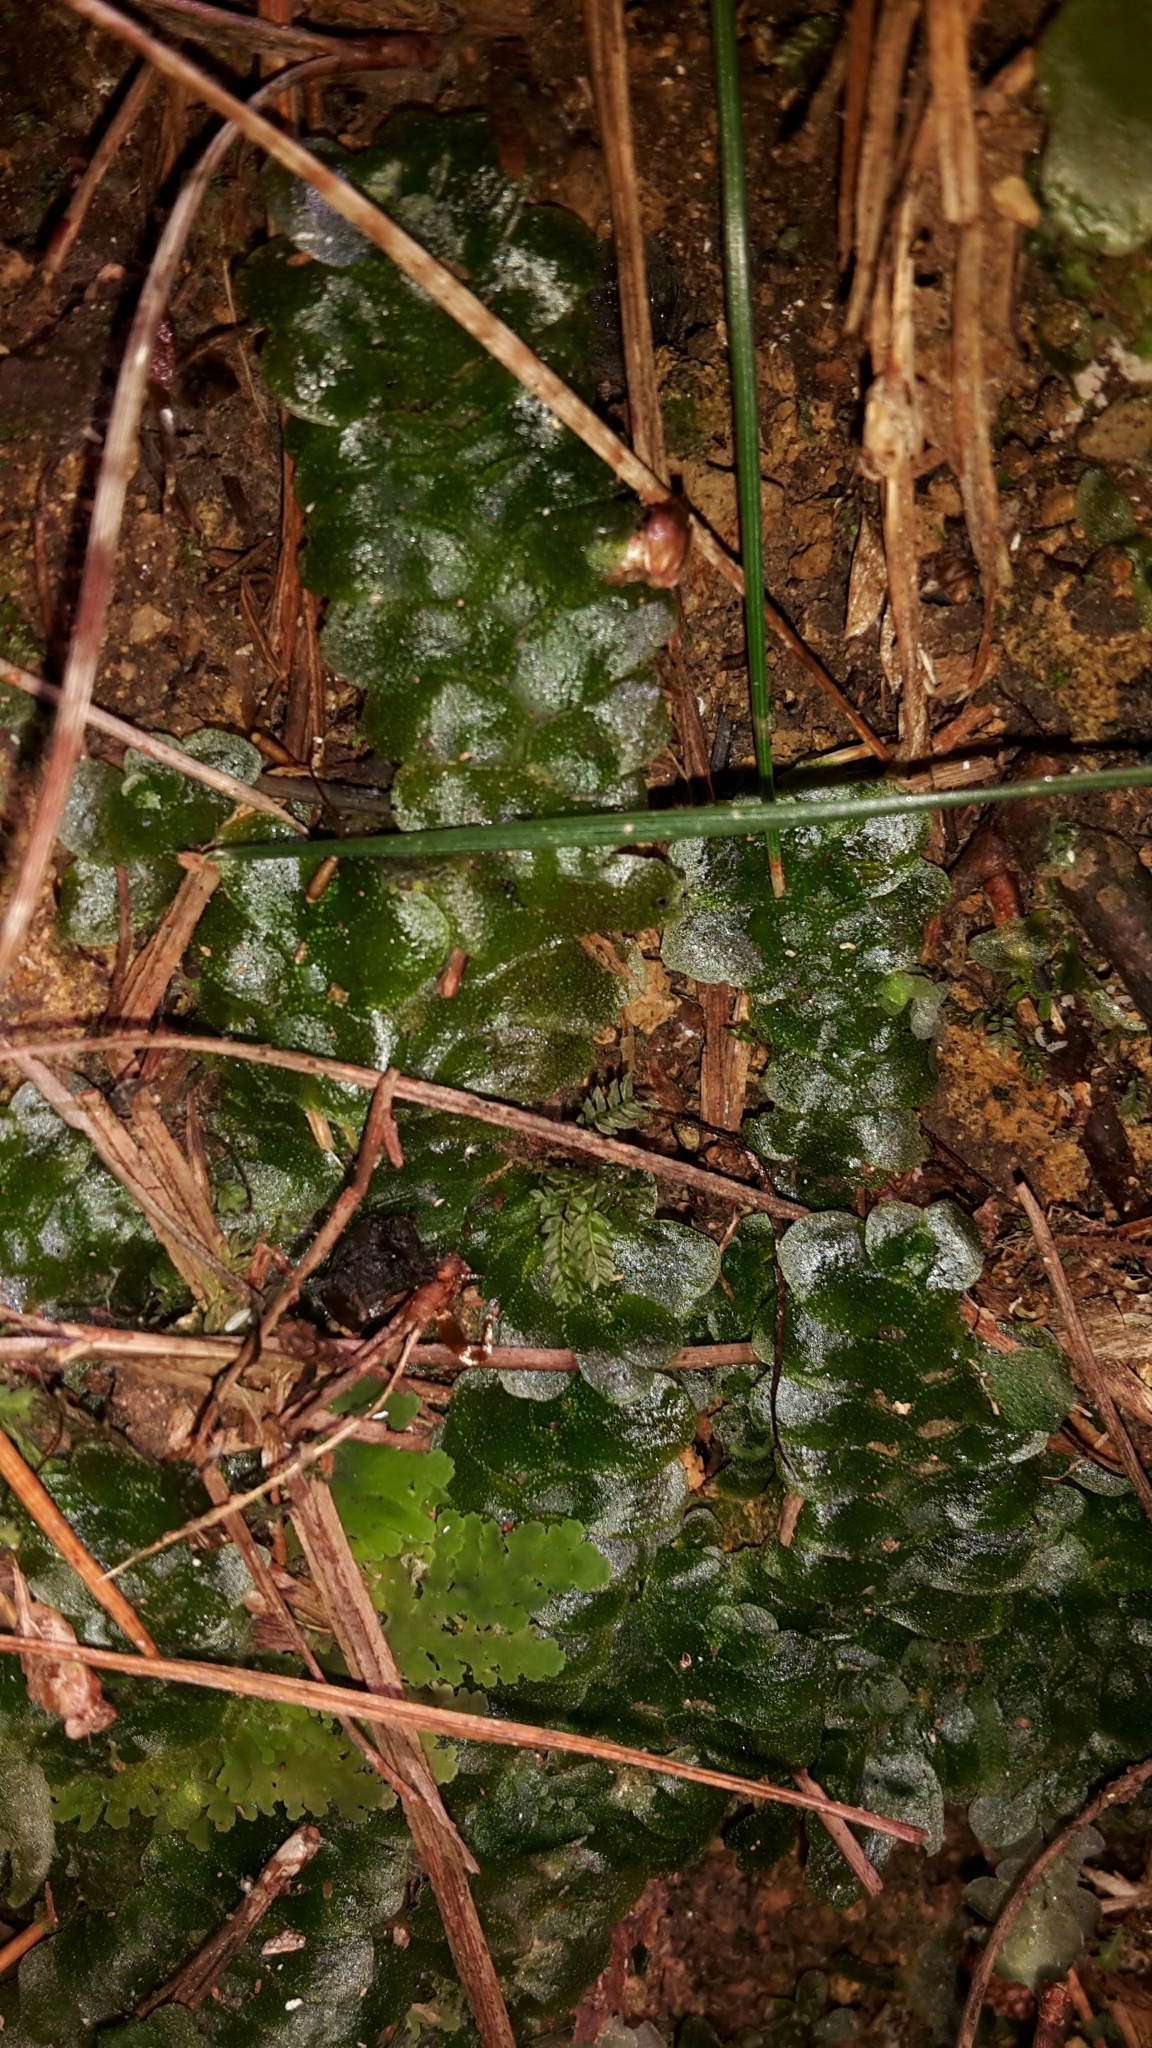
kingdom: Plantae
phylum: Marchantiophyta
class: Haplomitriopsida
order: Treubiales
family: Treubiaceae
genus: Treubia
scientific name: Treubia lacunosa
